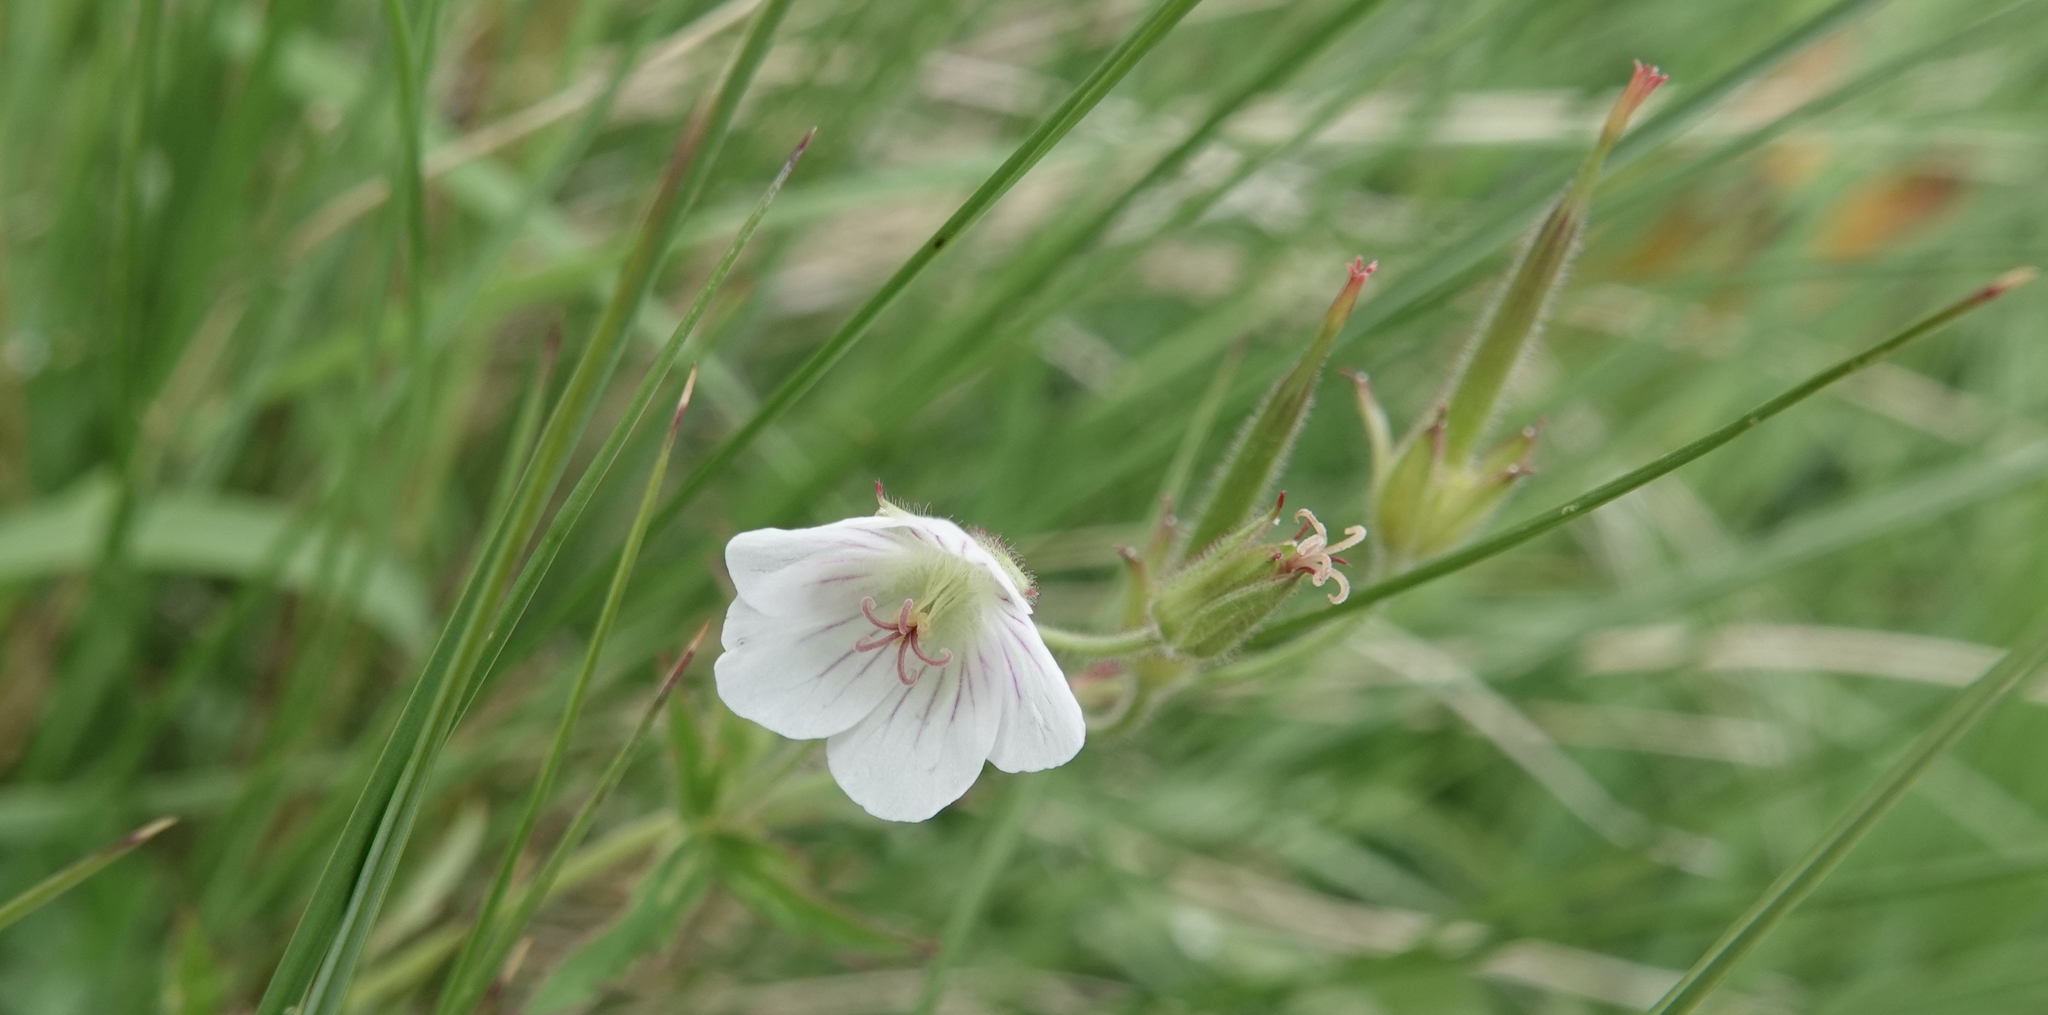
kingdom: Plantae
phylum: Tracheophyta
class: Magnoliopsida
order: Geraniales
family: Geraniaceae
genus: Geranium
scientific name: Geranium richardsonii
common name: Richardson's crane's-bill
